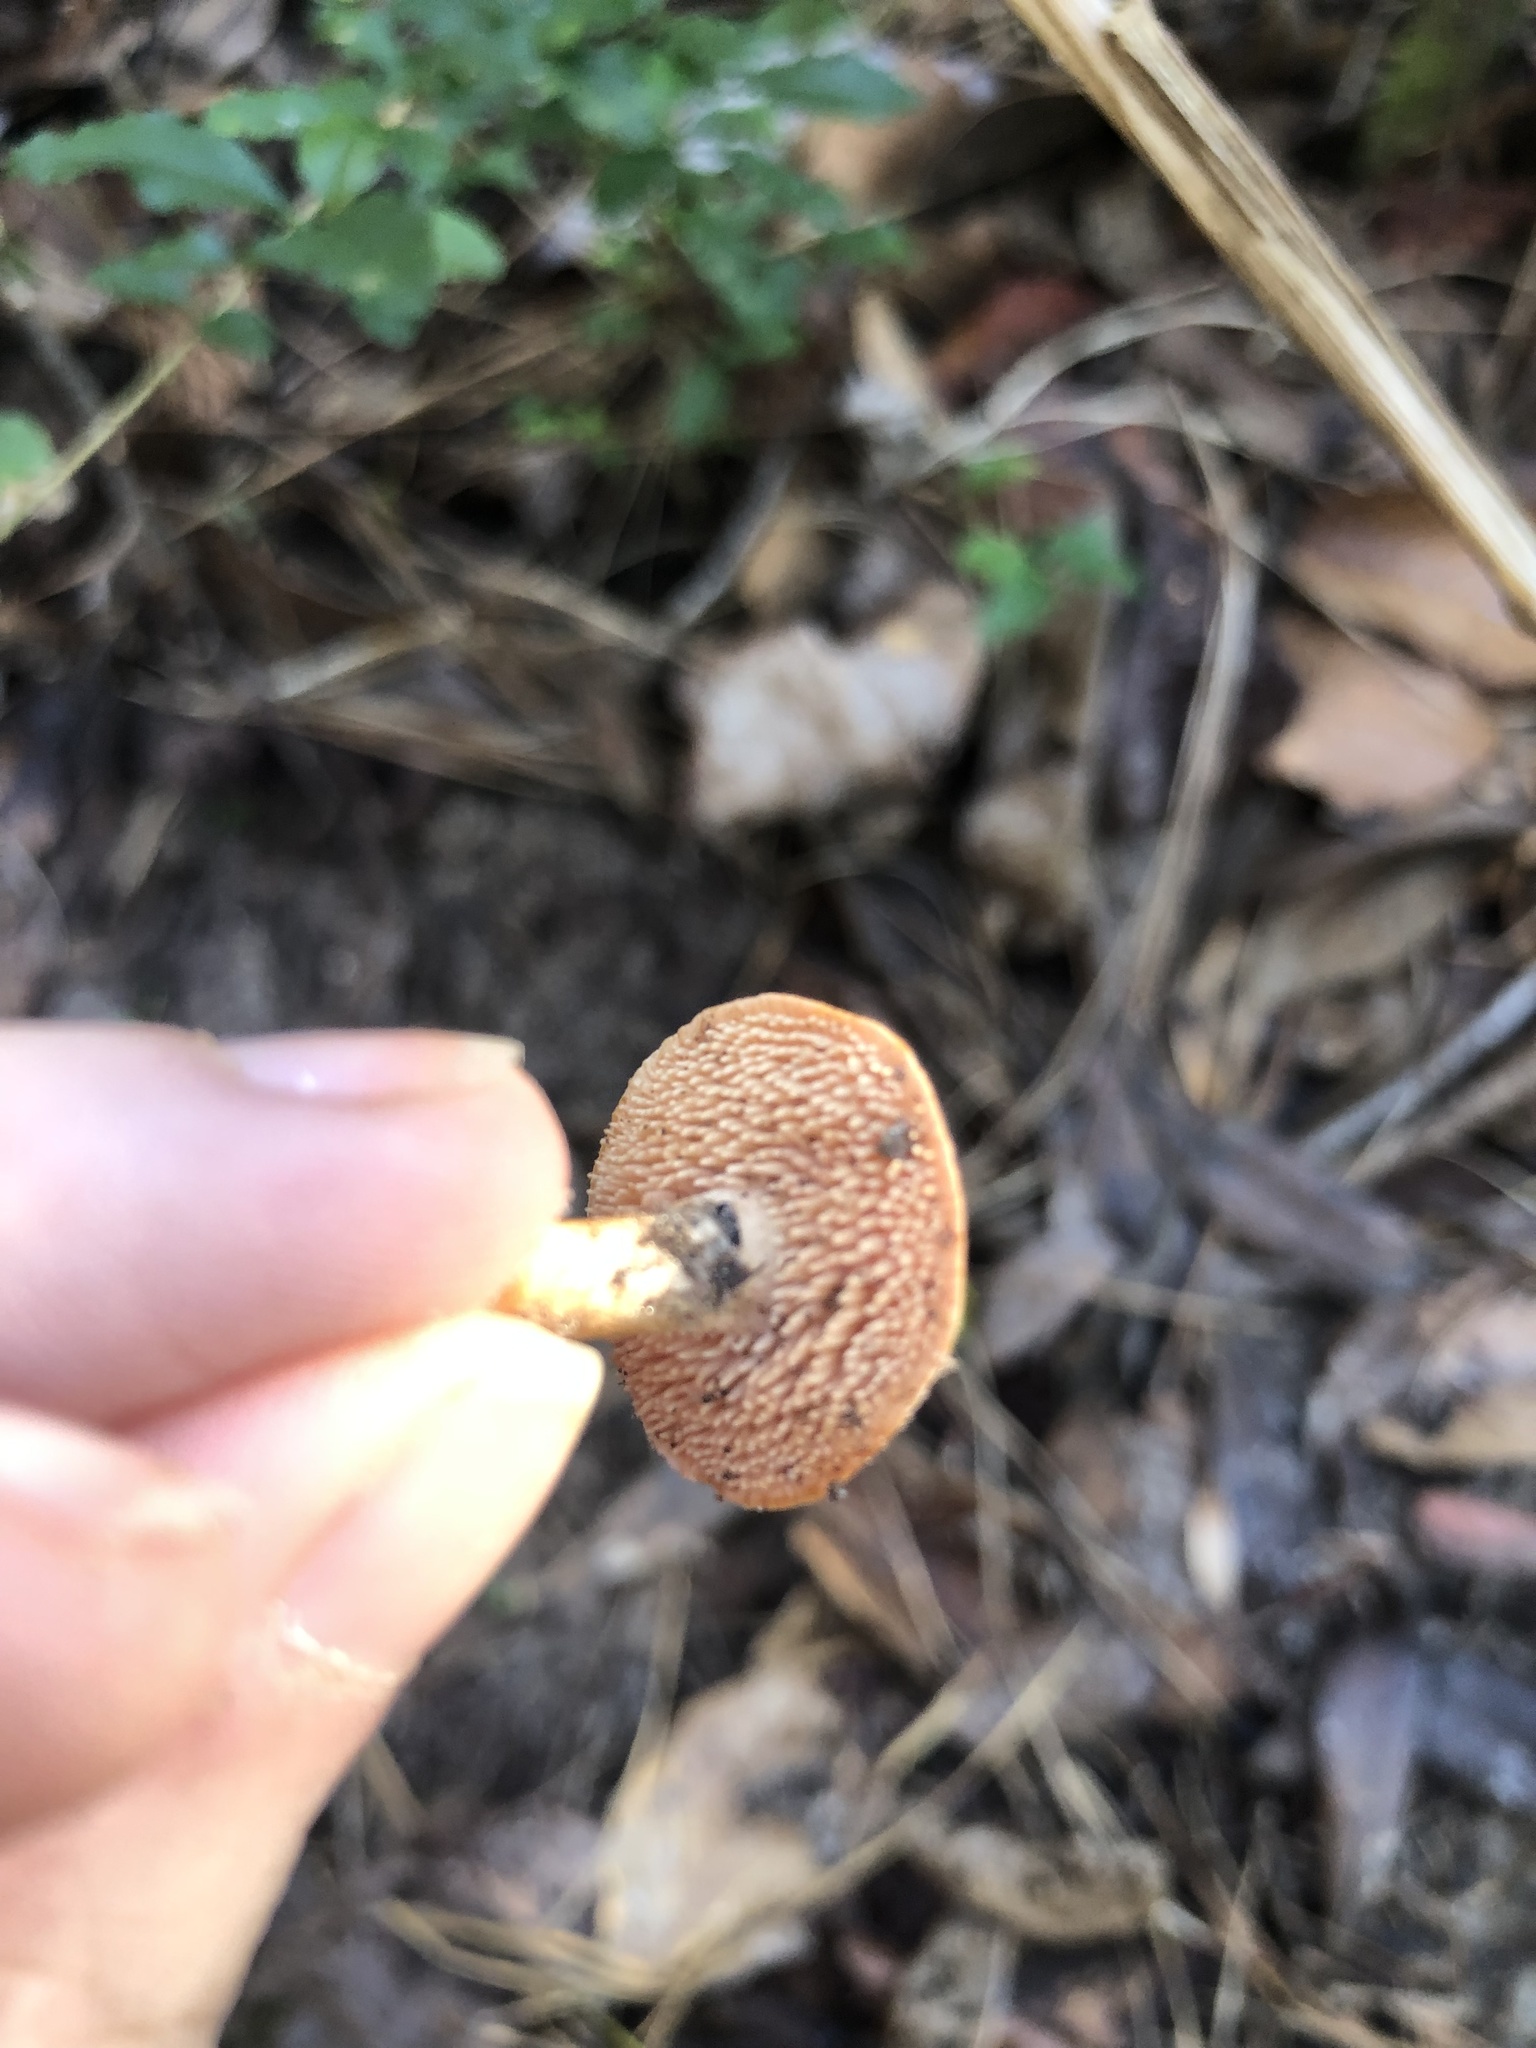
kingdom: Fungi
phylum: Basidiomycota
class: Agaricomycetes
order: Cantharellales
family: Hydnaceae
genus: Hydnum
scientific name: Hydnum
